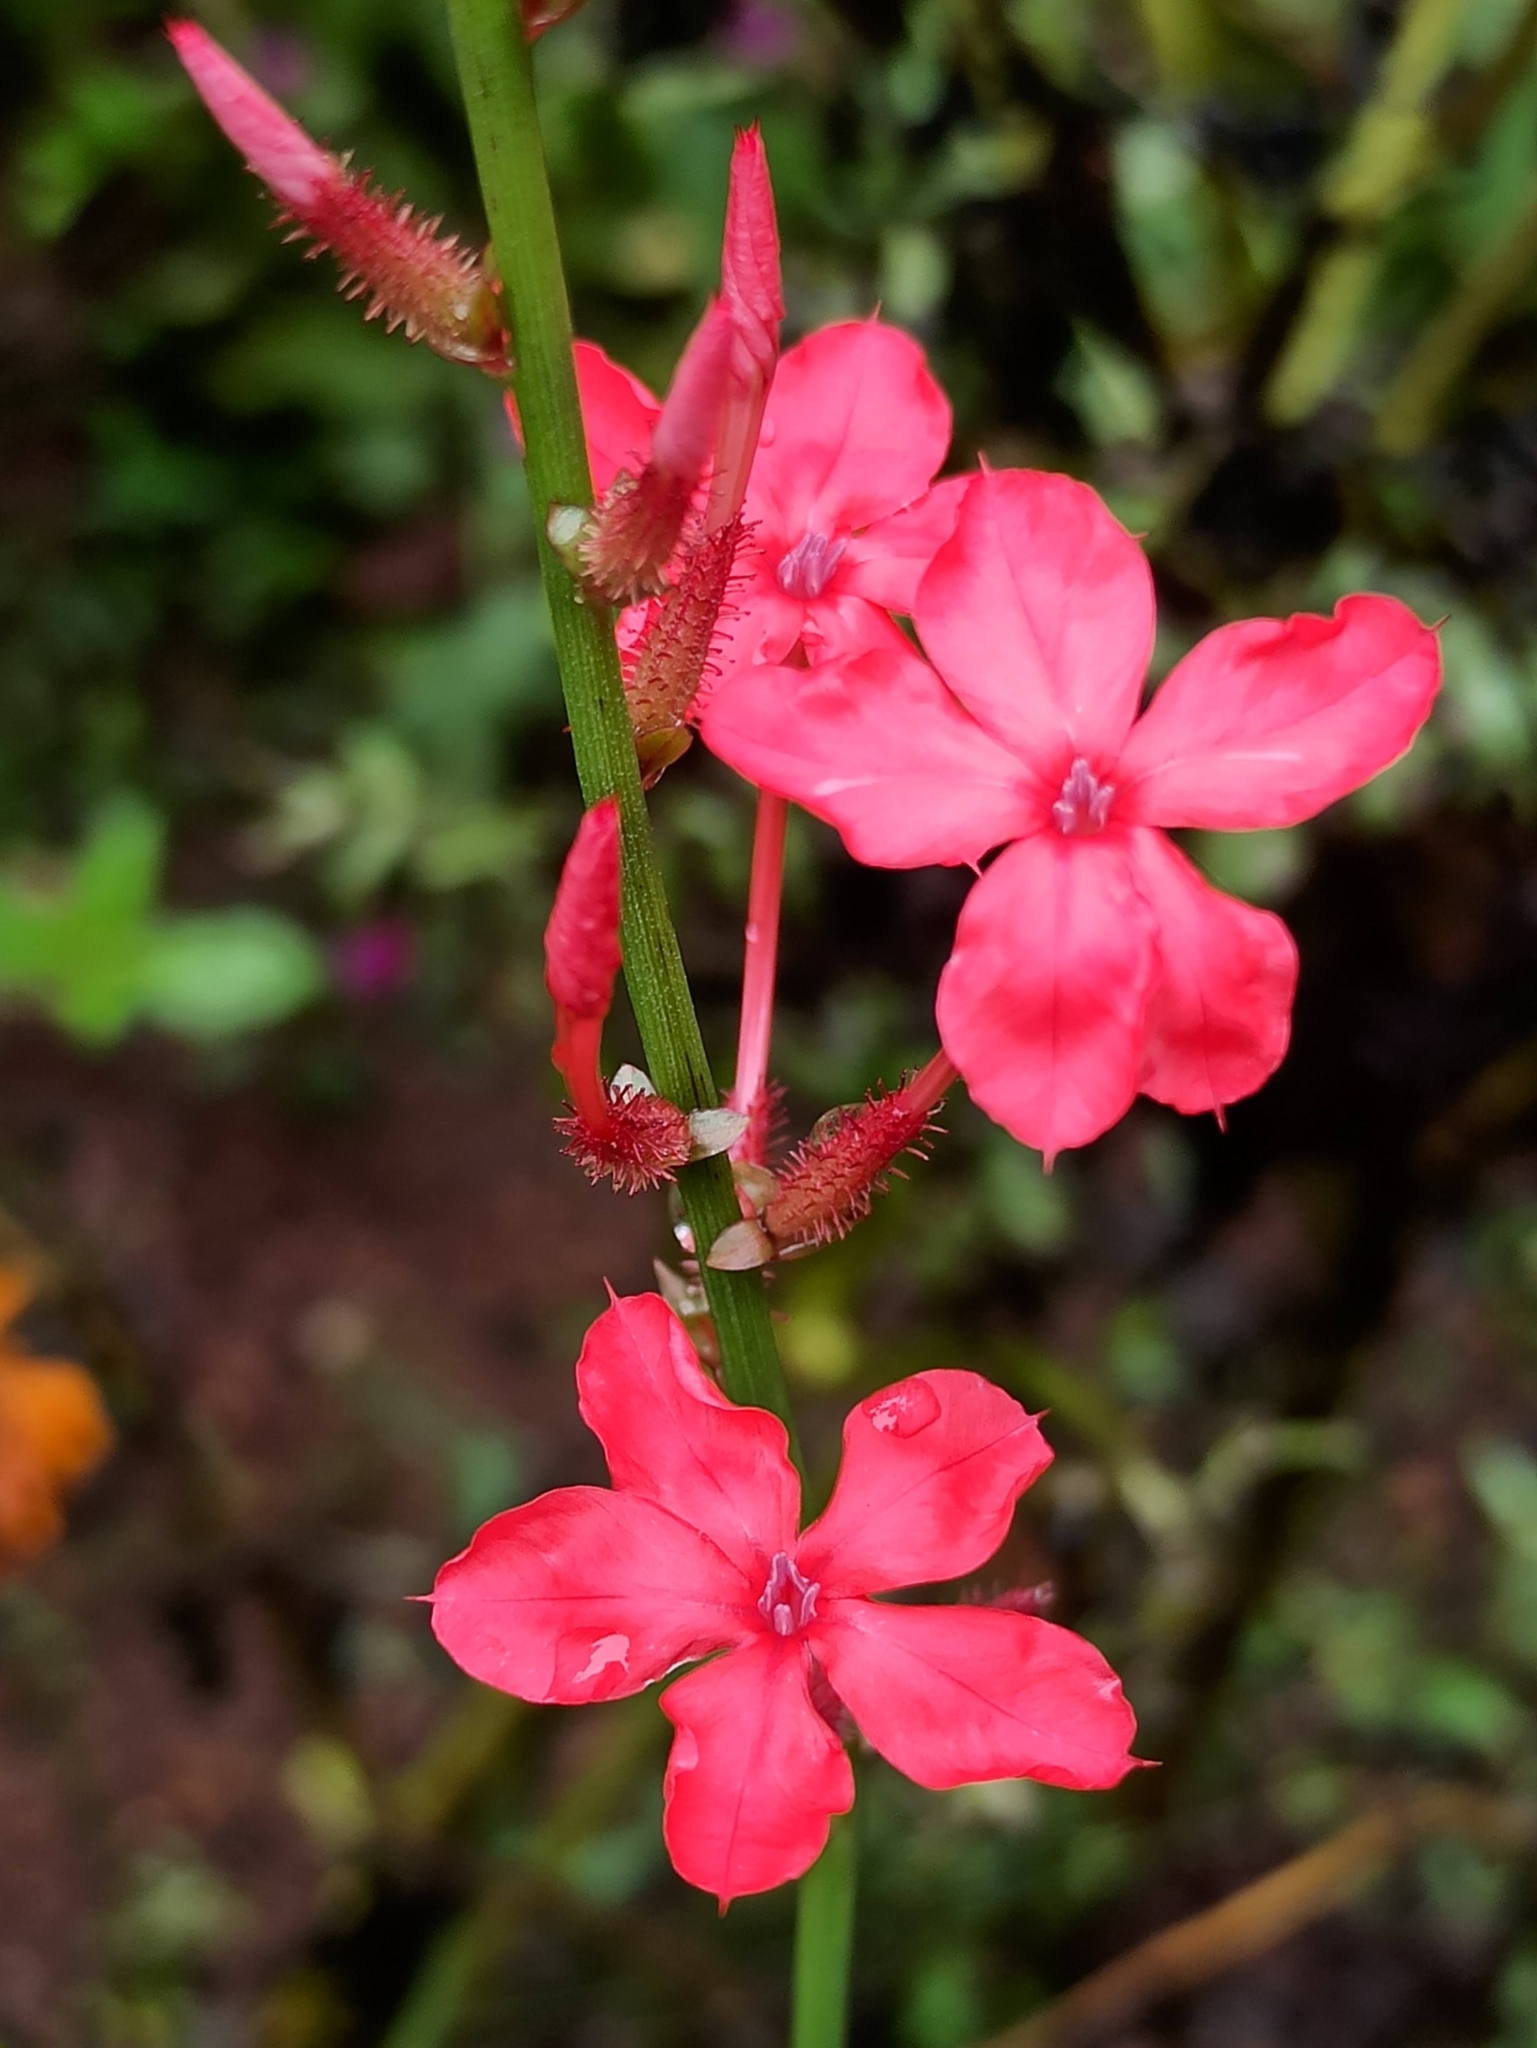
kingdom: Plantae
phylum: Tracheophyta
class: Magnoliopsida
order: Caryophyllales
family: Plumbaginaceae
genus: Plumbago
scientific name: Plumbago indica
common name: Indian leadwort
